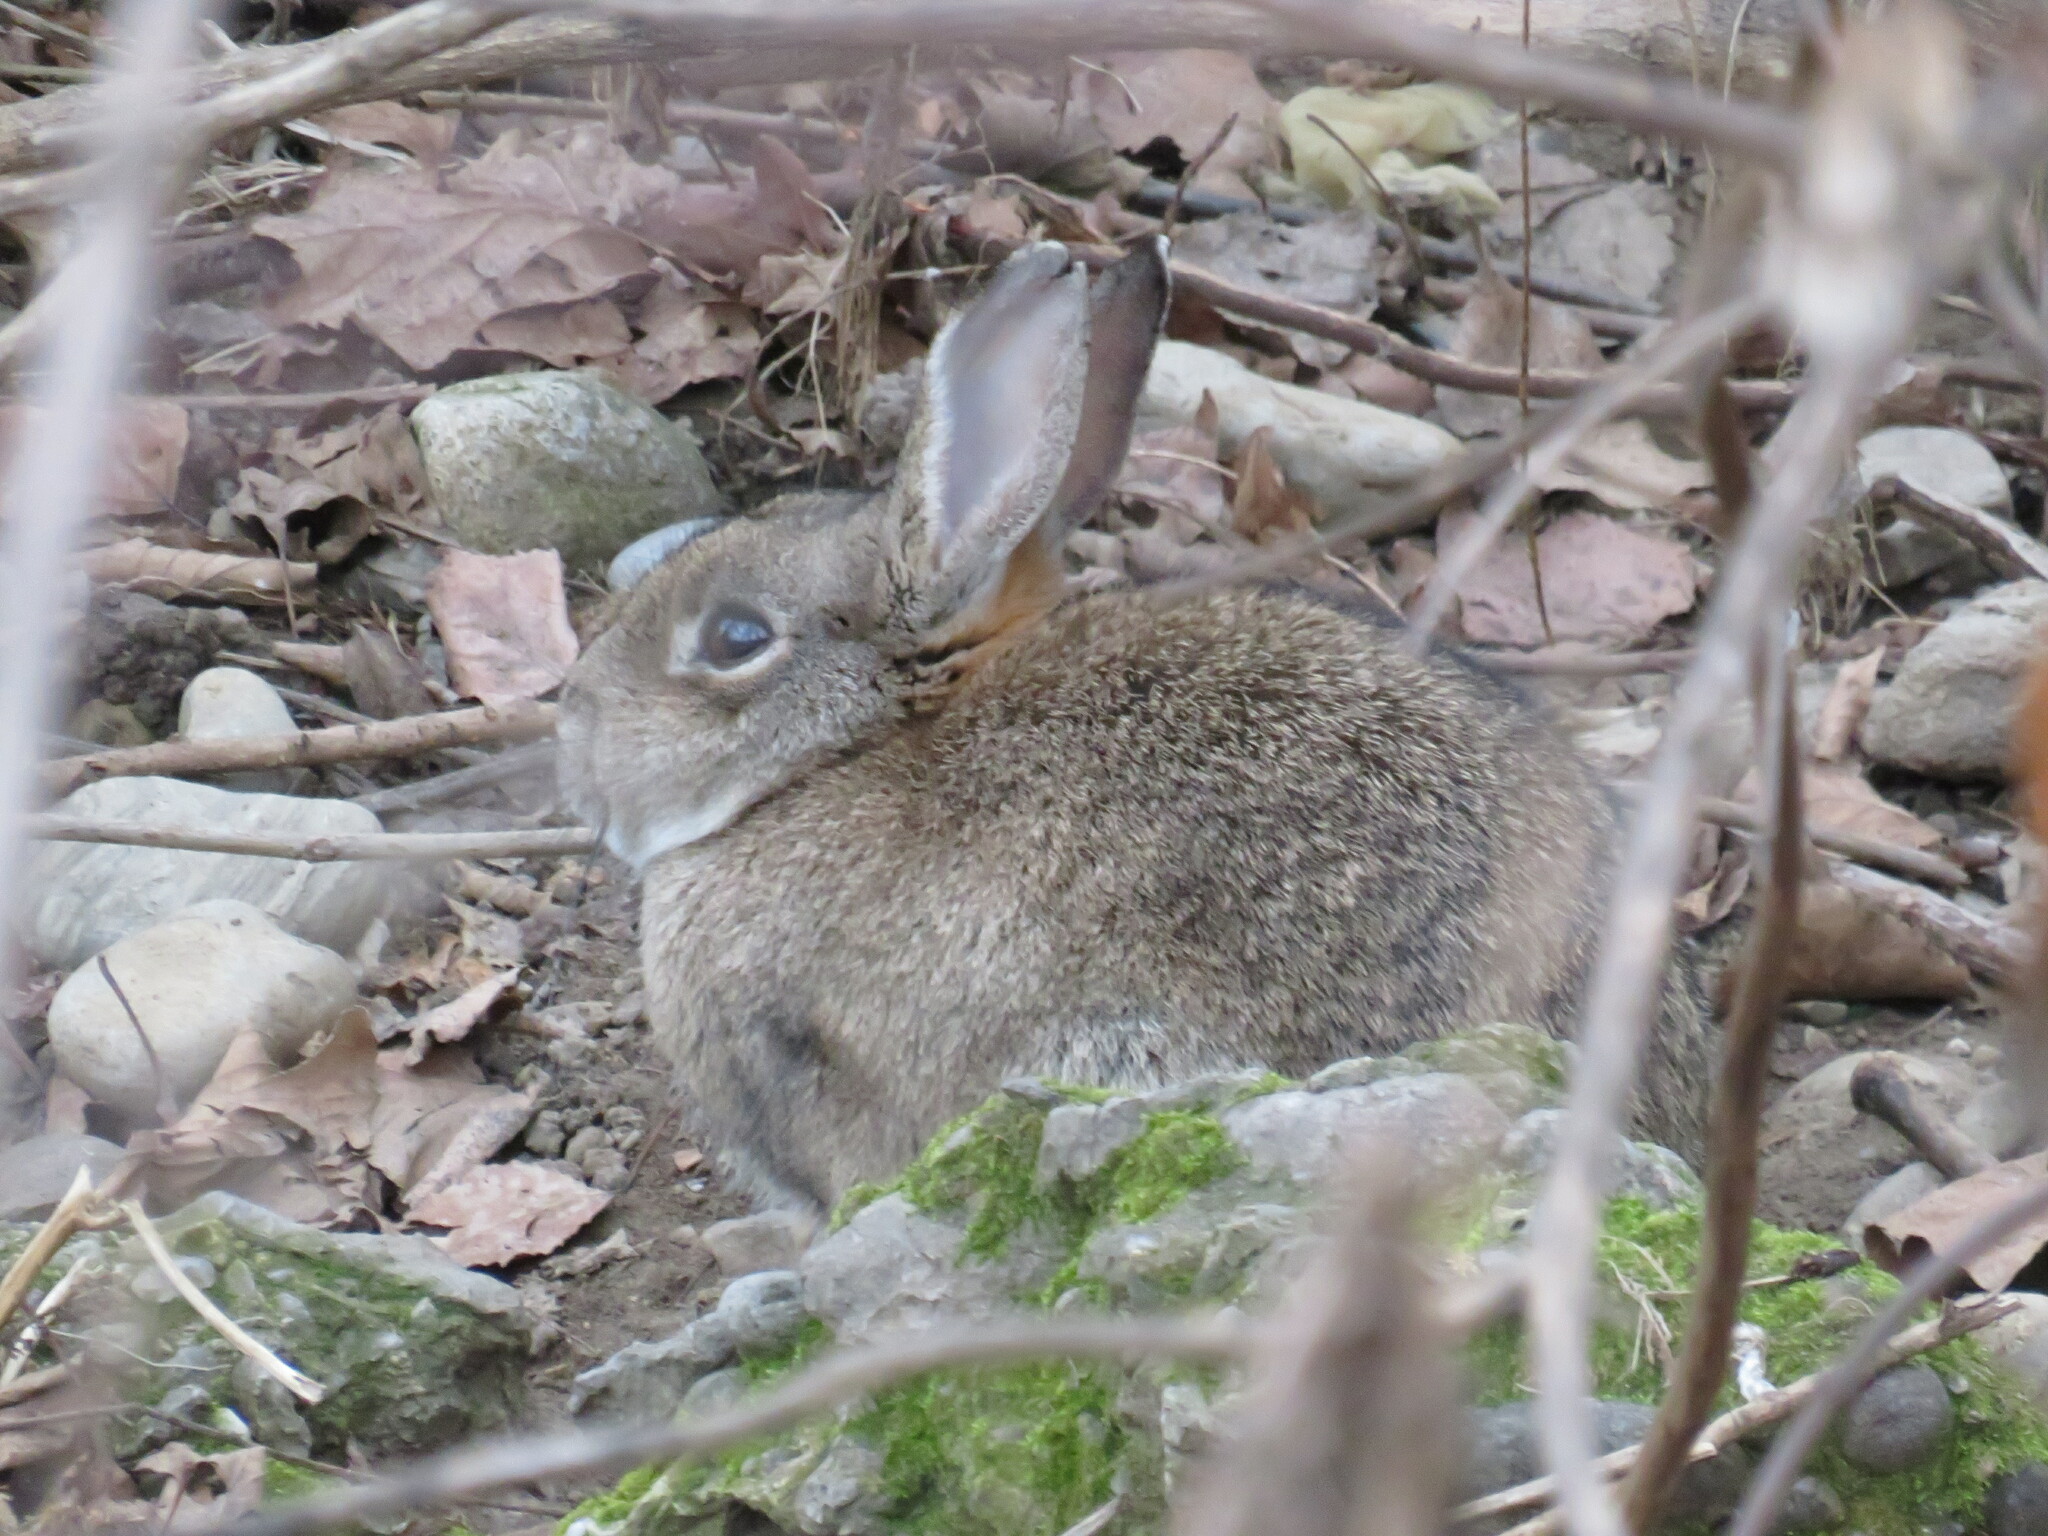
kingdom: Animalia
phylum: Chordata
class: Mammalia
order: Lagomorpha
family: Leporidae
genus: Oryctolagus
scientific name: Oryctolagus cuniculus
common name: European rabbit
